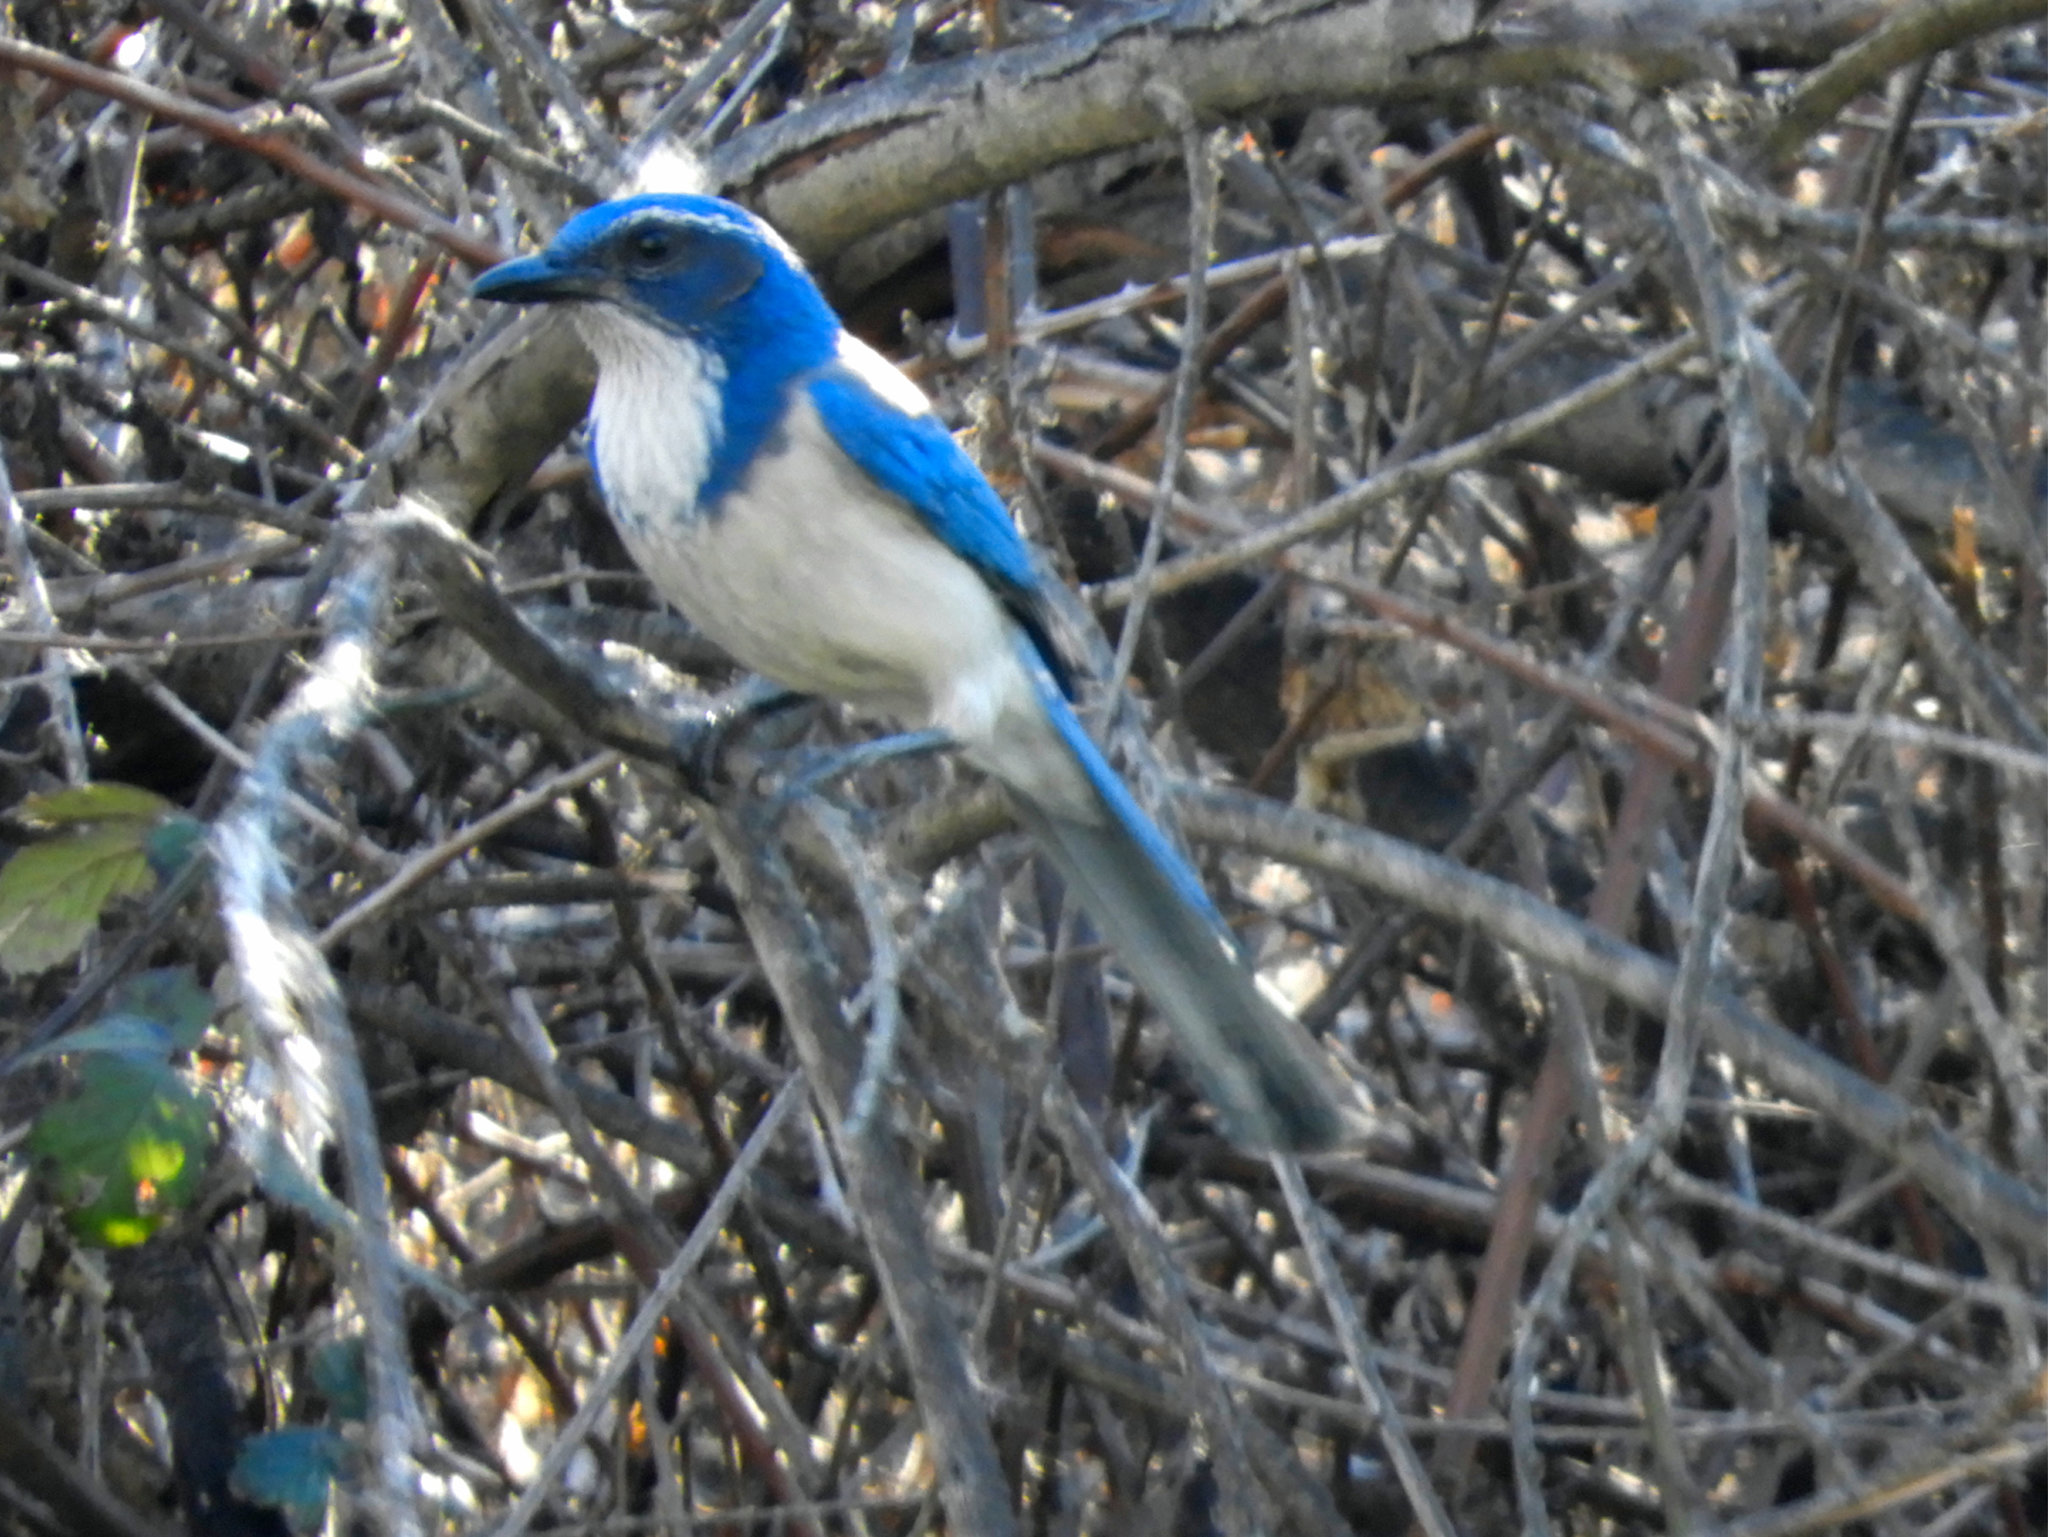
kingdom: Animalia
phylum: Chordata
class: Aves
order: Passeriformes
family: Corvidae
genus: Aphelocoma
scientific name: Aphelocoma californica
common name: California scrub-jay
